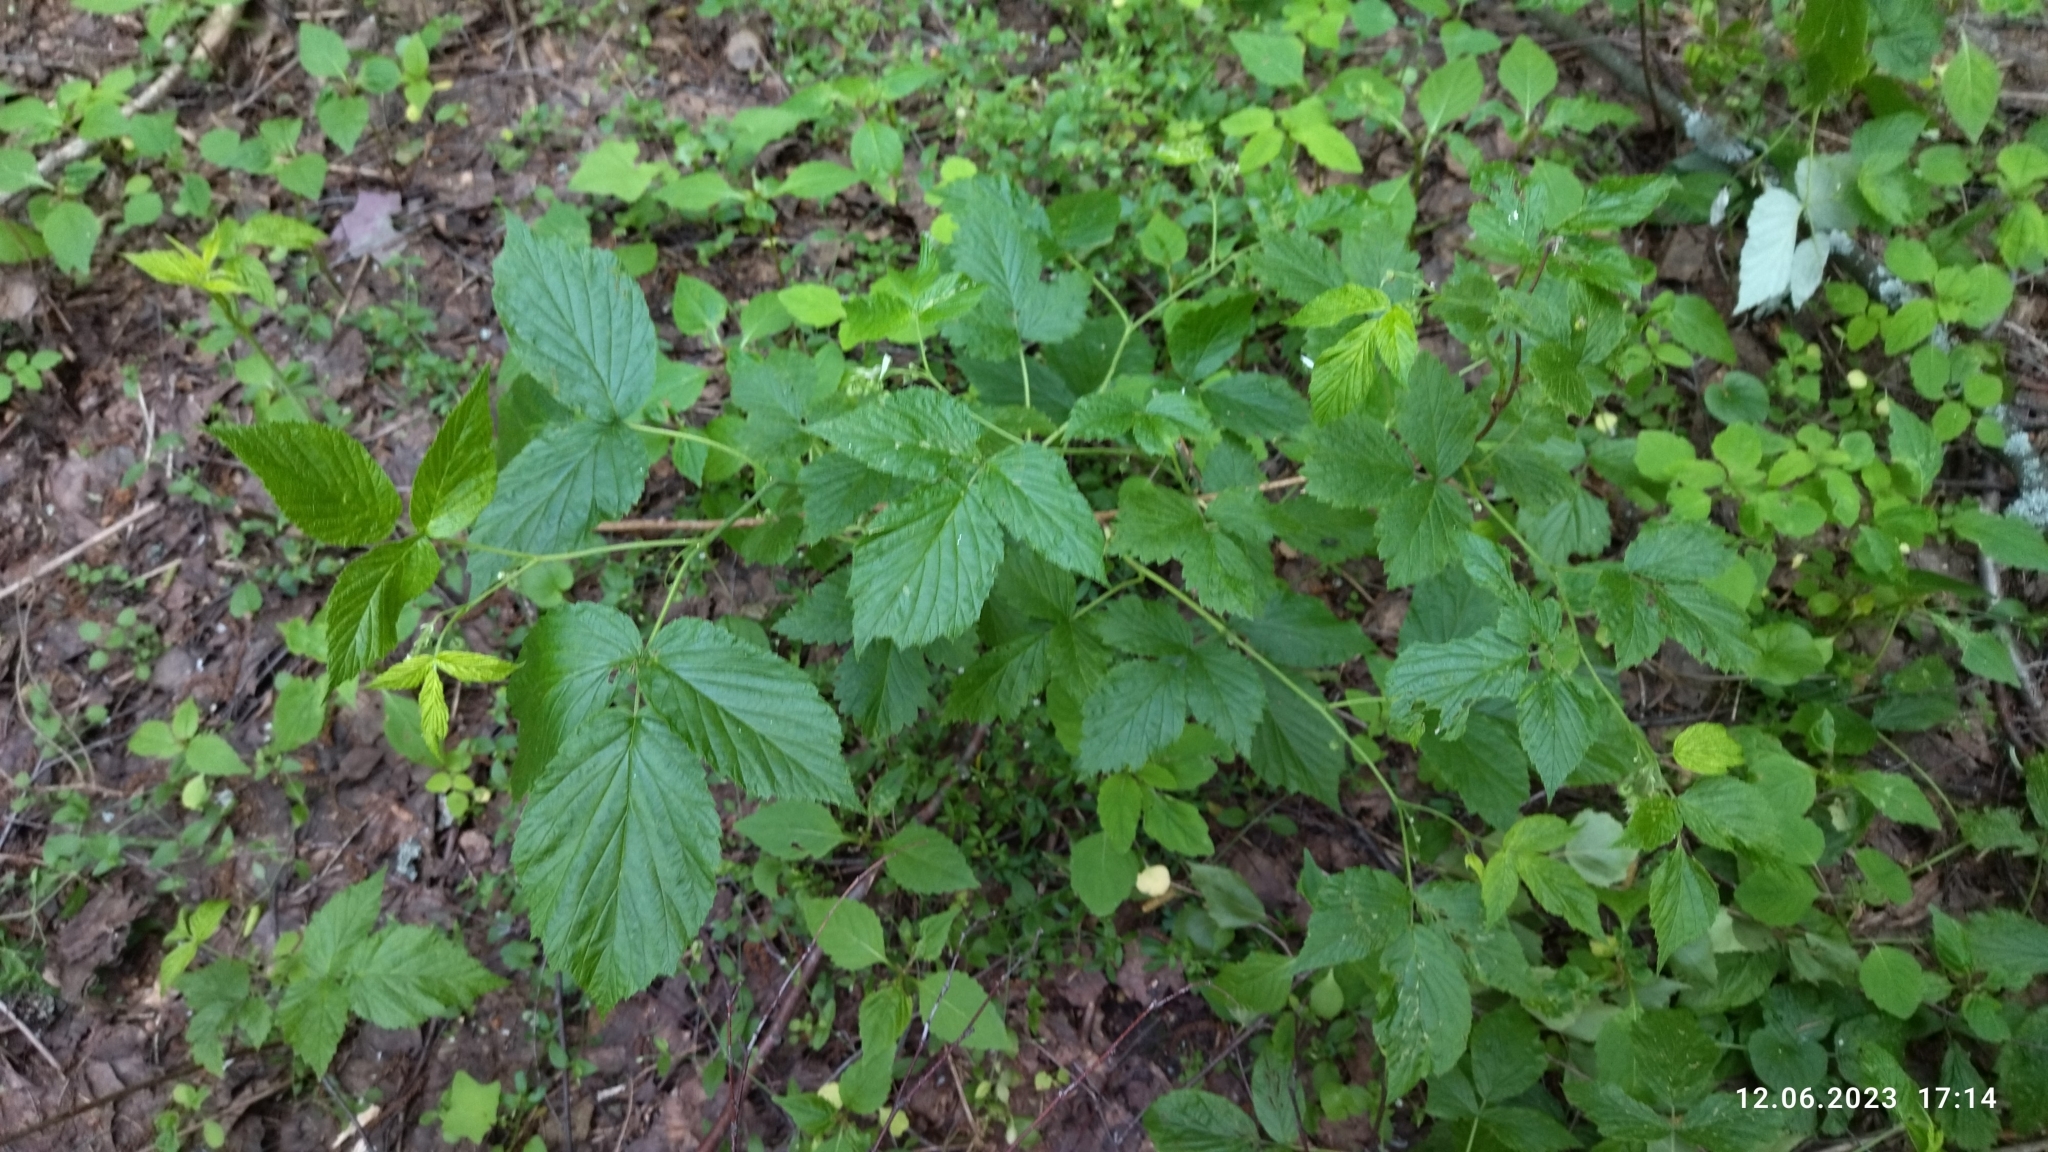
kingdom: Plantae
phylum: Tracheophyta
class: Magnoliopsida
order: Rosales
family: Rosaceae
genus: Rubus
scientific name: Rubus idaeus
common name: Raspberry
